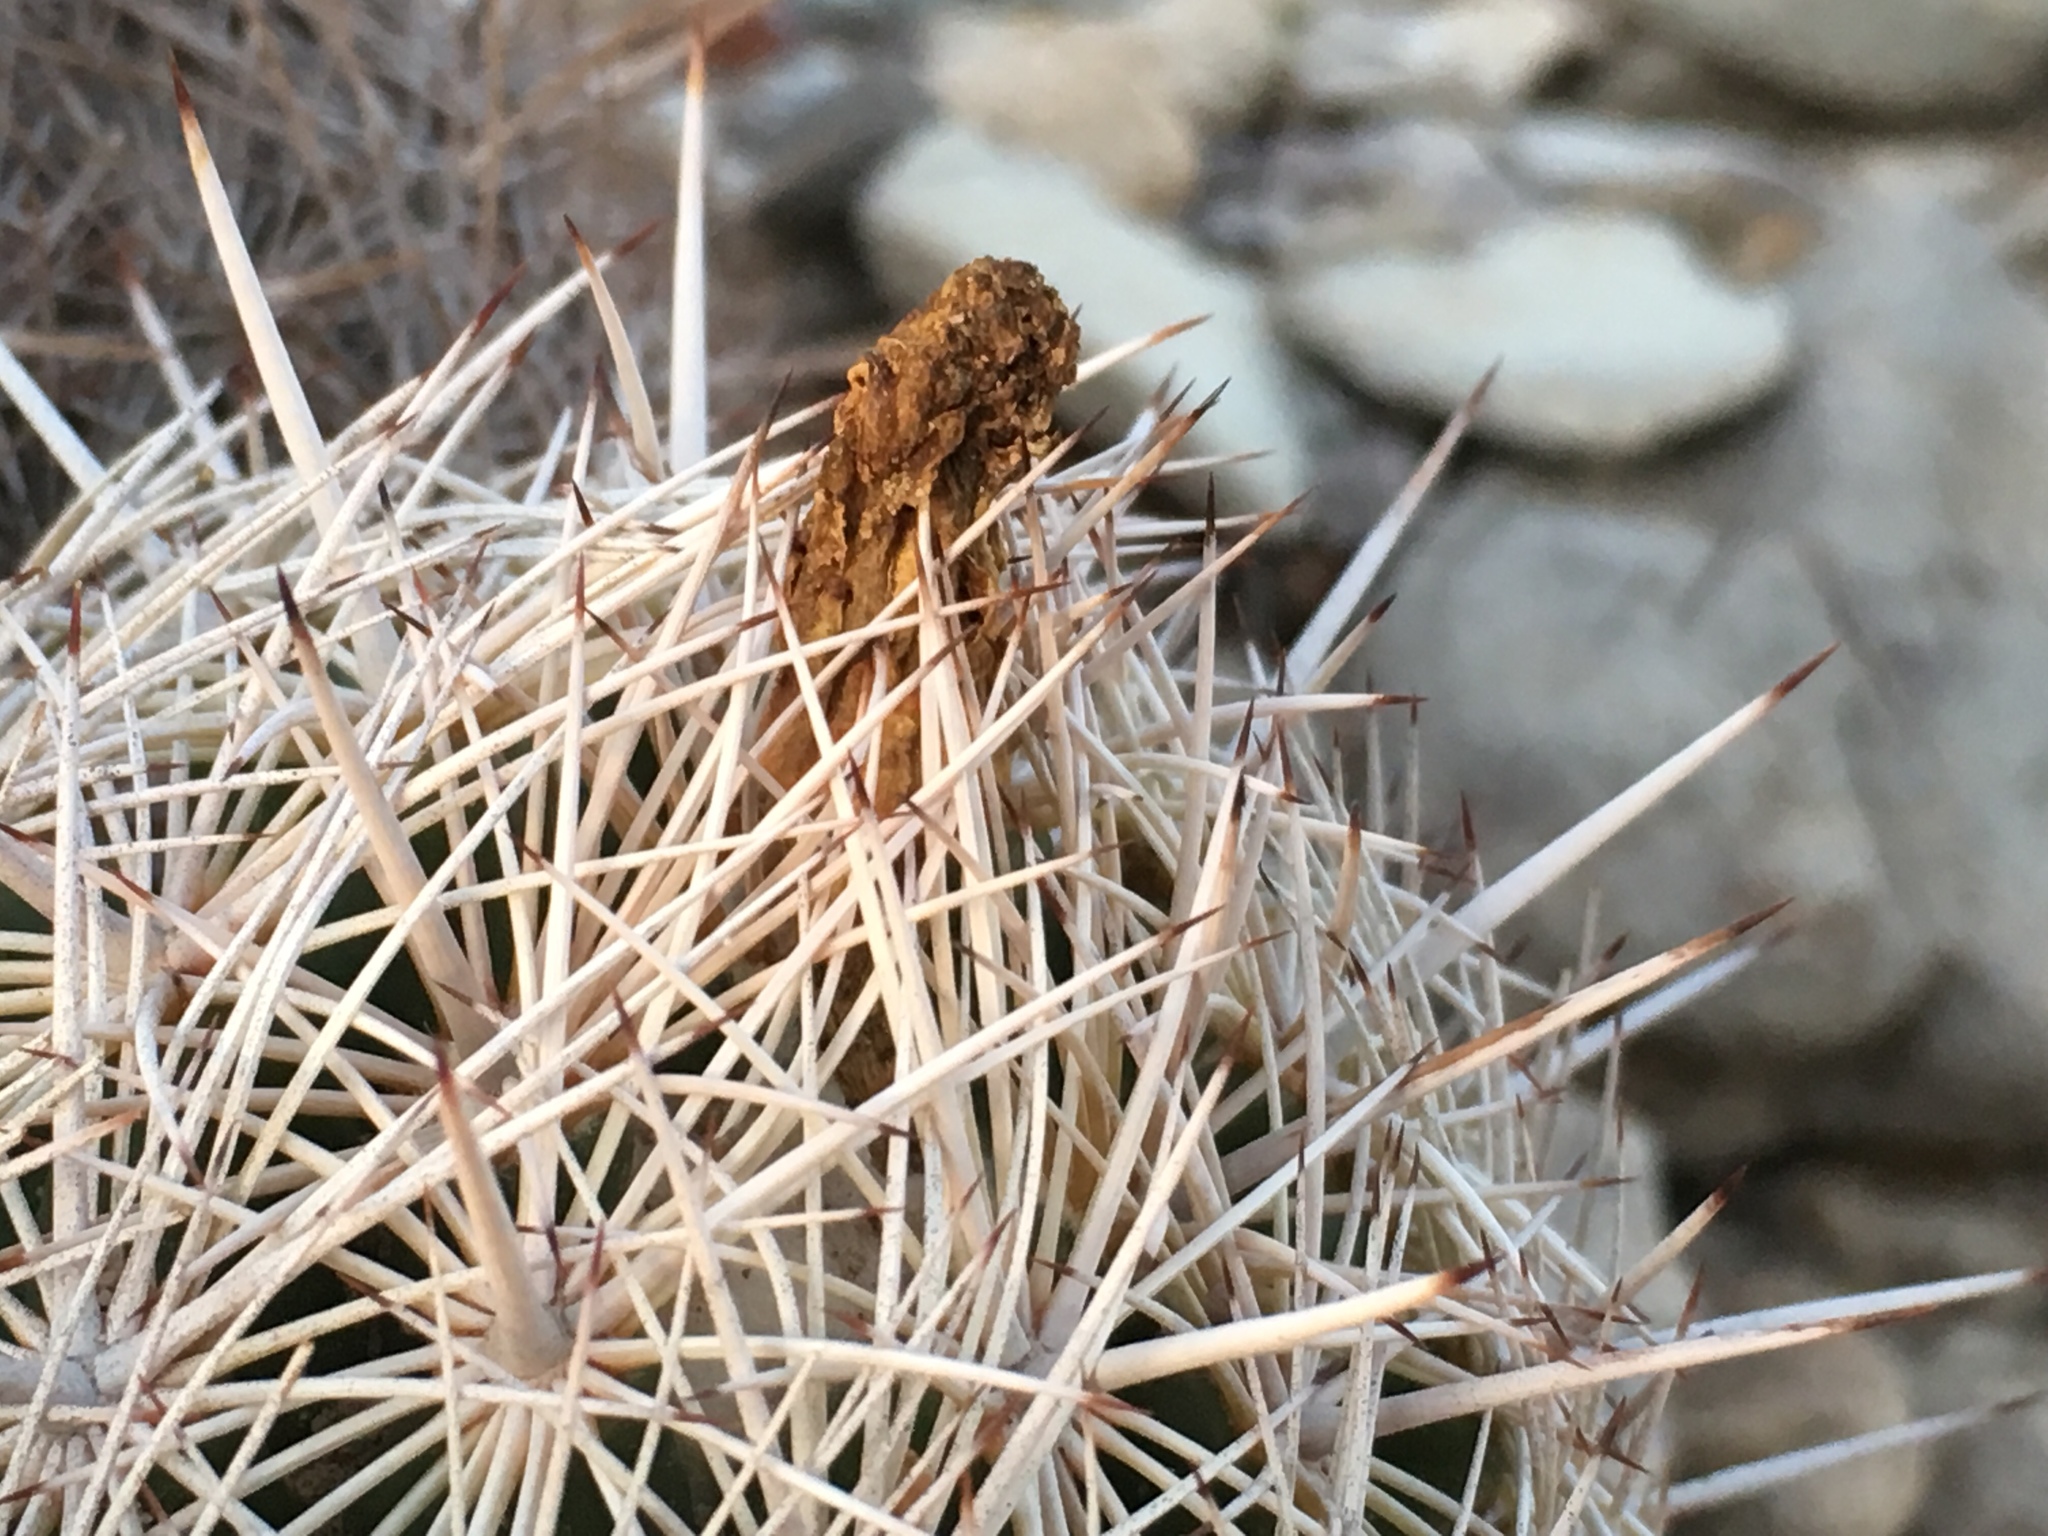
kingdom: Plantae
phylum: Tracheophyta
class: Magnoliopsida
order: Caryophyllales
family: Cactaceae
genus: Coryphantha
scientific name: Coryphantha echinus
